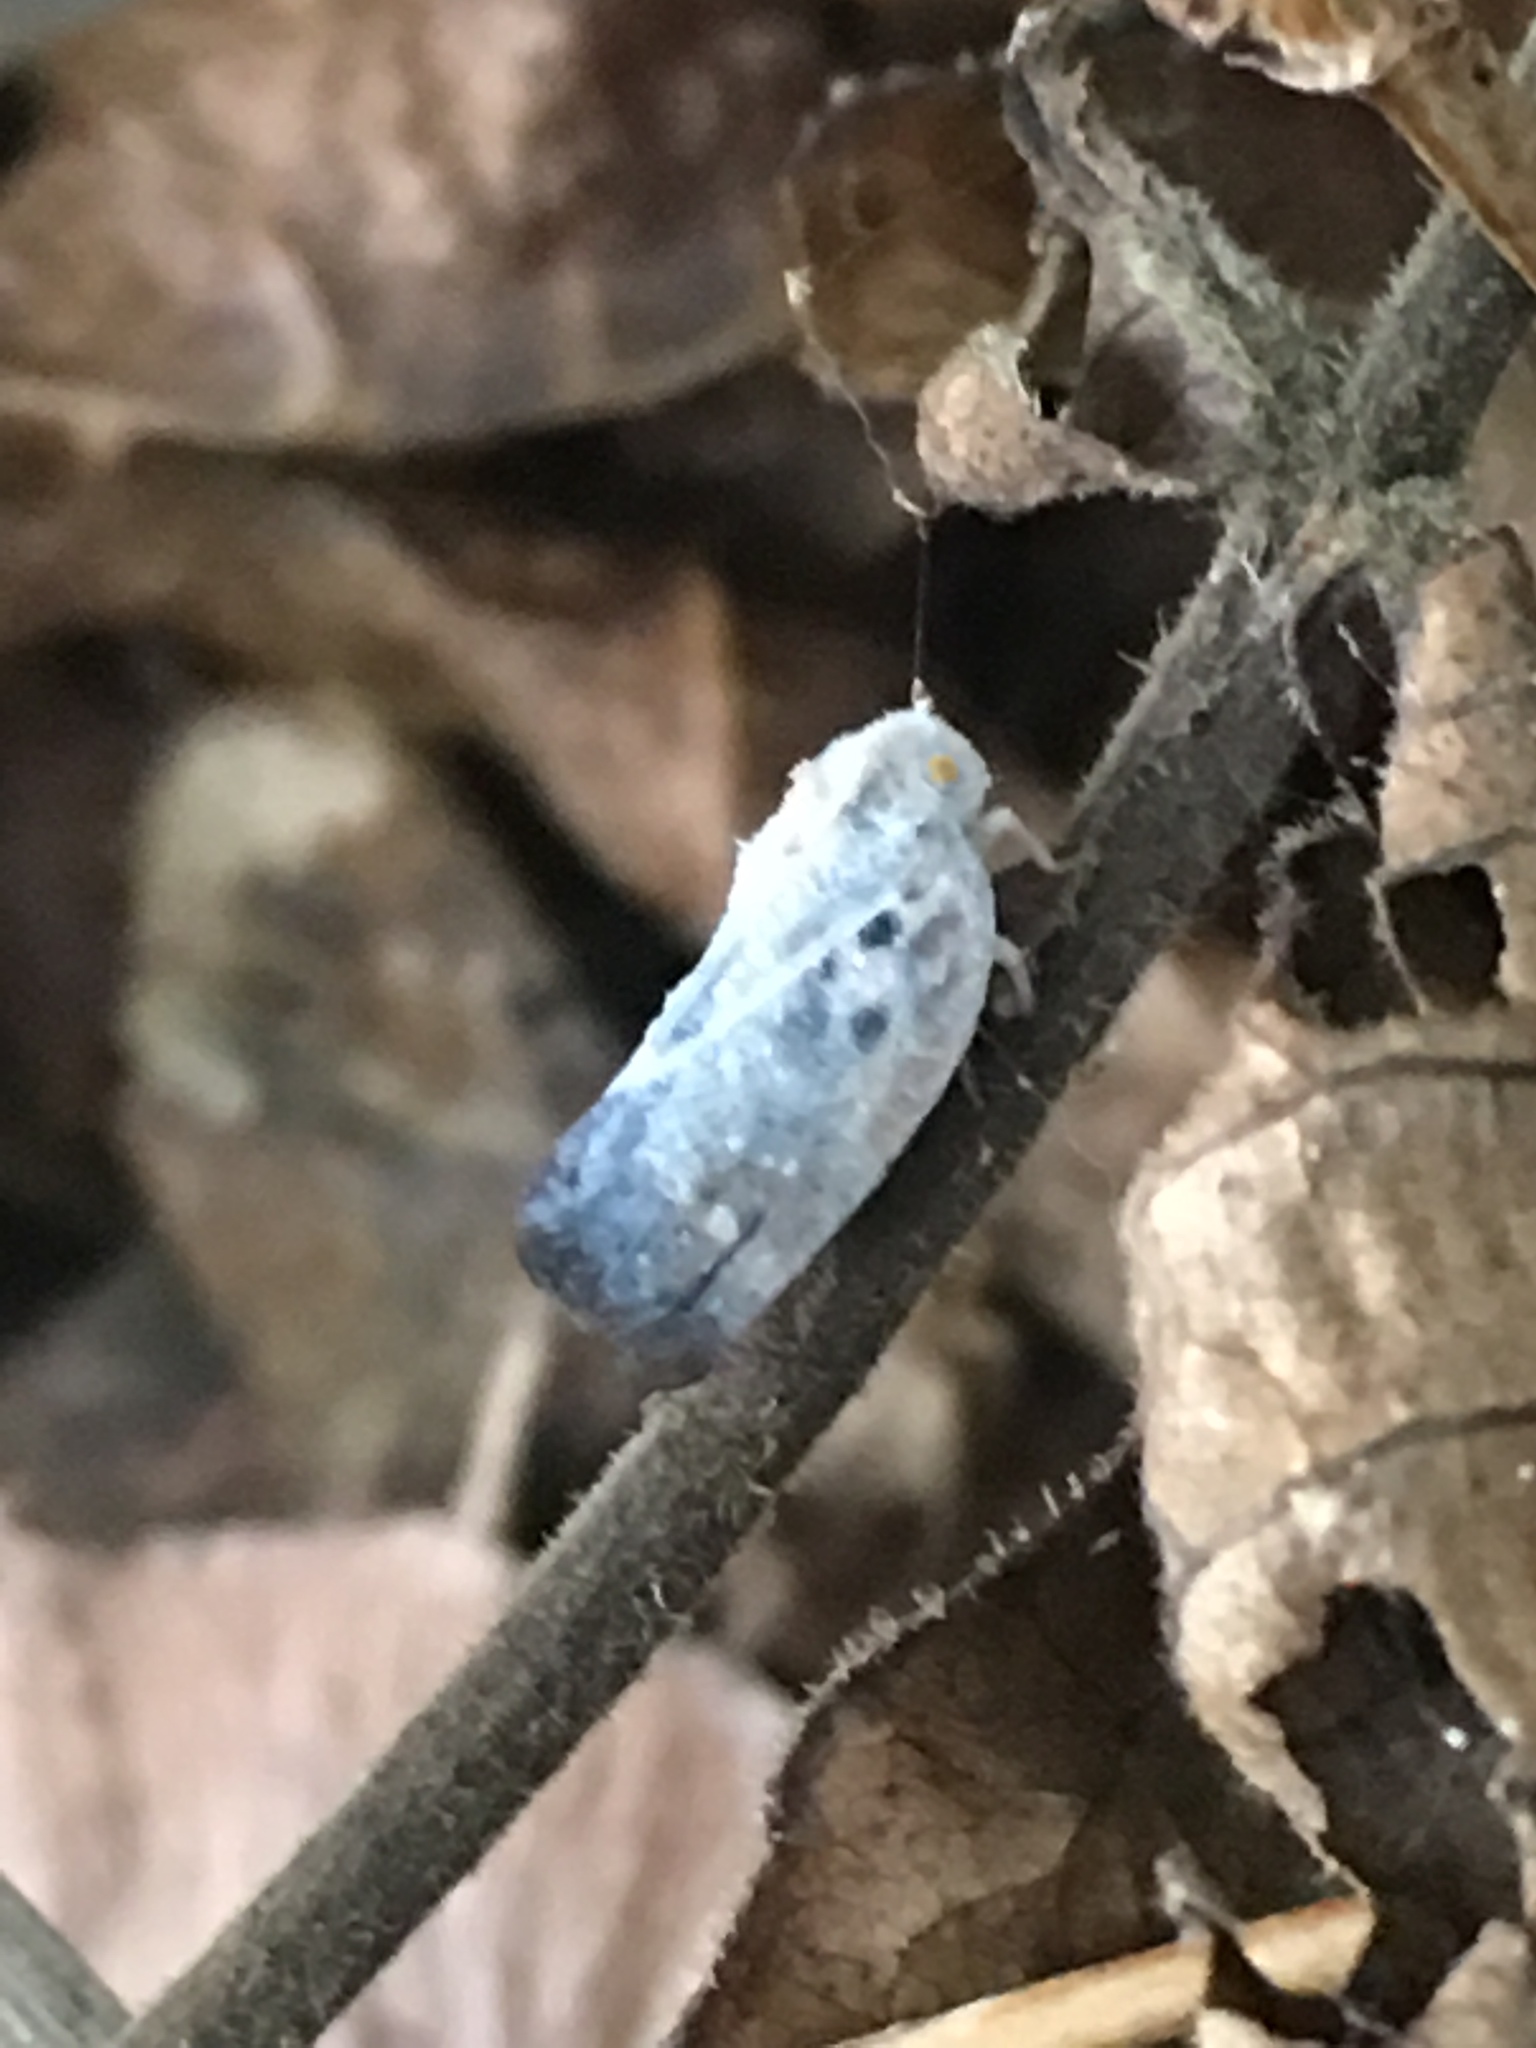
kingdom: Animalia
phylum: Arthropoda
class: Insecta
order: Hemiptera
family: Flatidae
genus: Metcalfa
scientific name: Metcalfa pruinosa
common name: Citrus flatid planthopper
